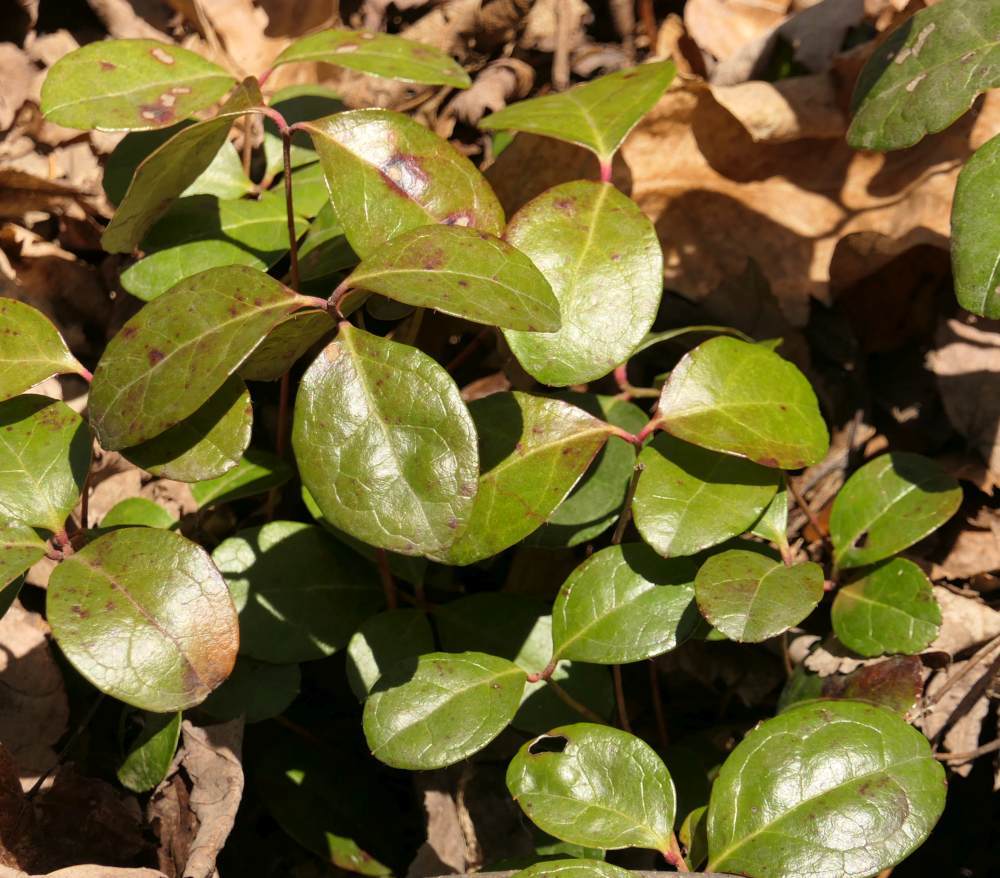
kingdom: Plantae
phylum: Tracheophyta
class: Magnoliopsida
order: Ericales
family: Ericaceae
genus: Gaultheria
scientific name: Gaultheria procumbens
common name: Checkerberry
